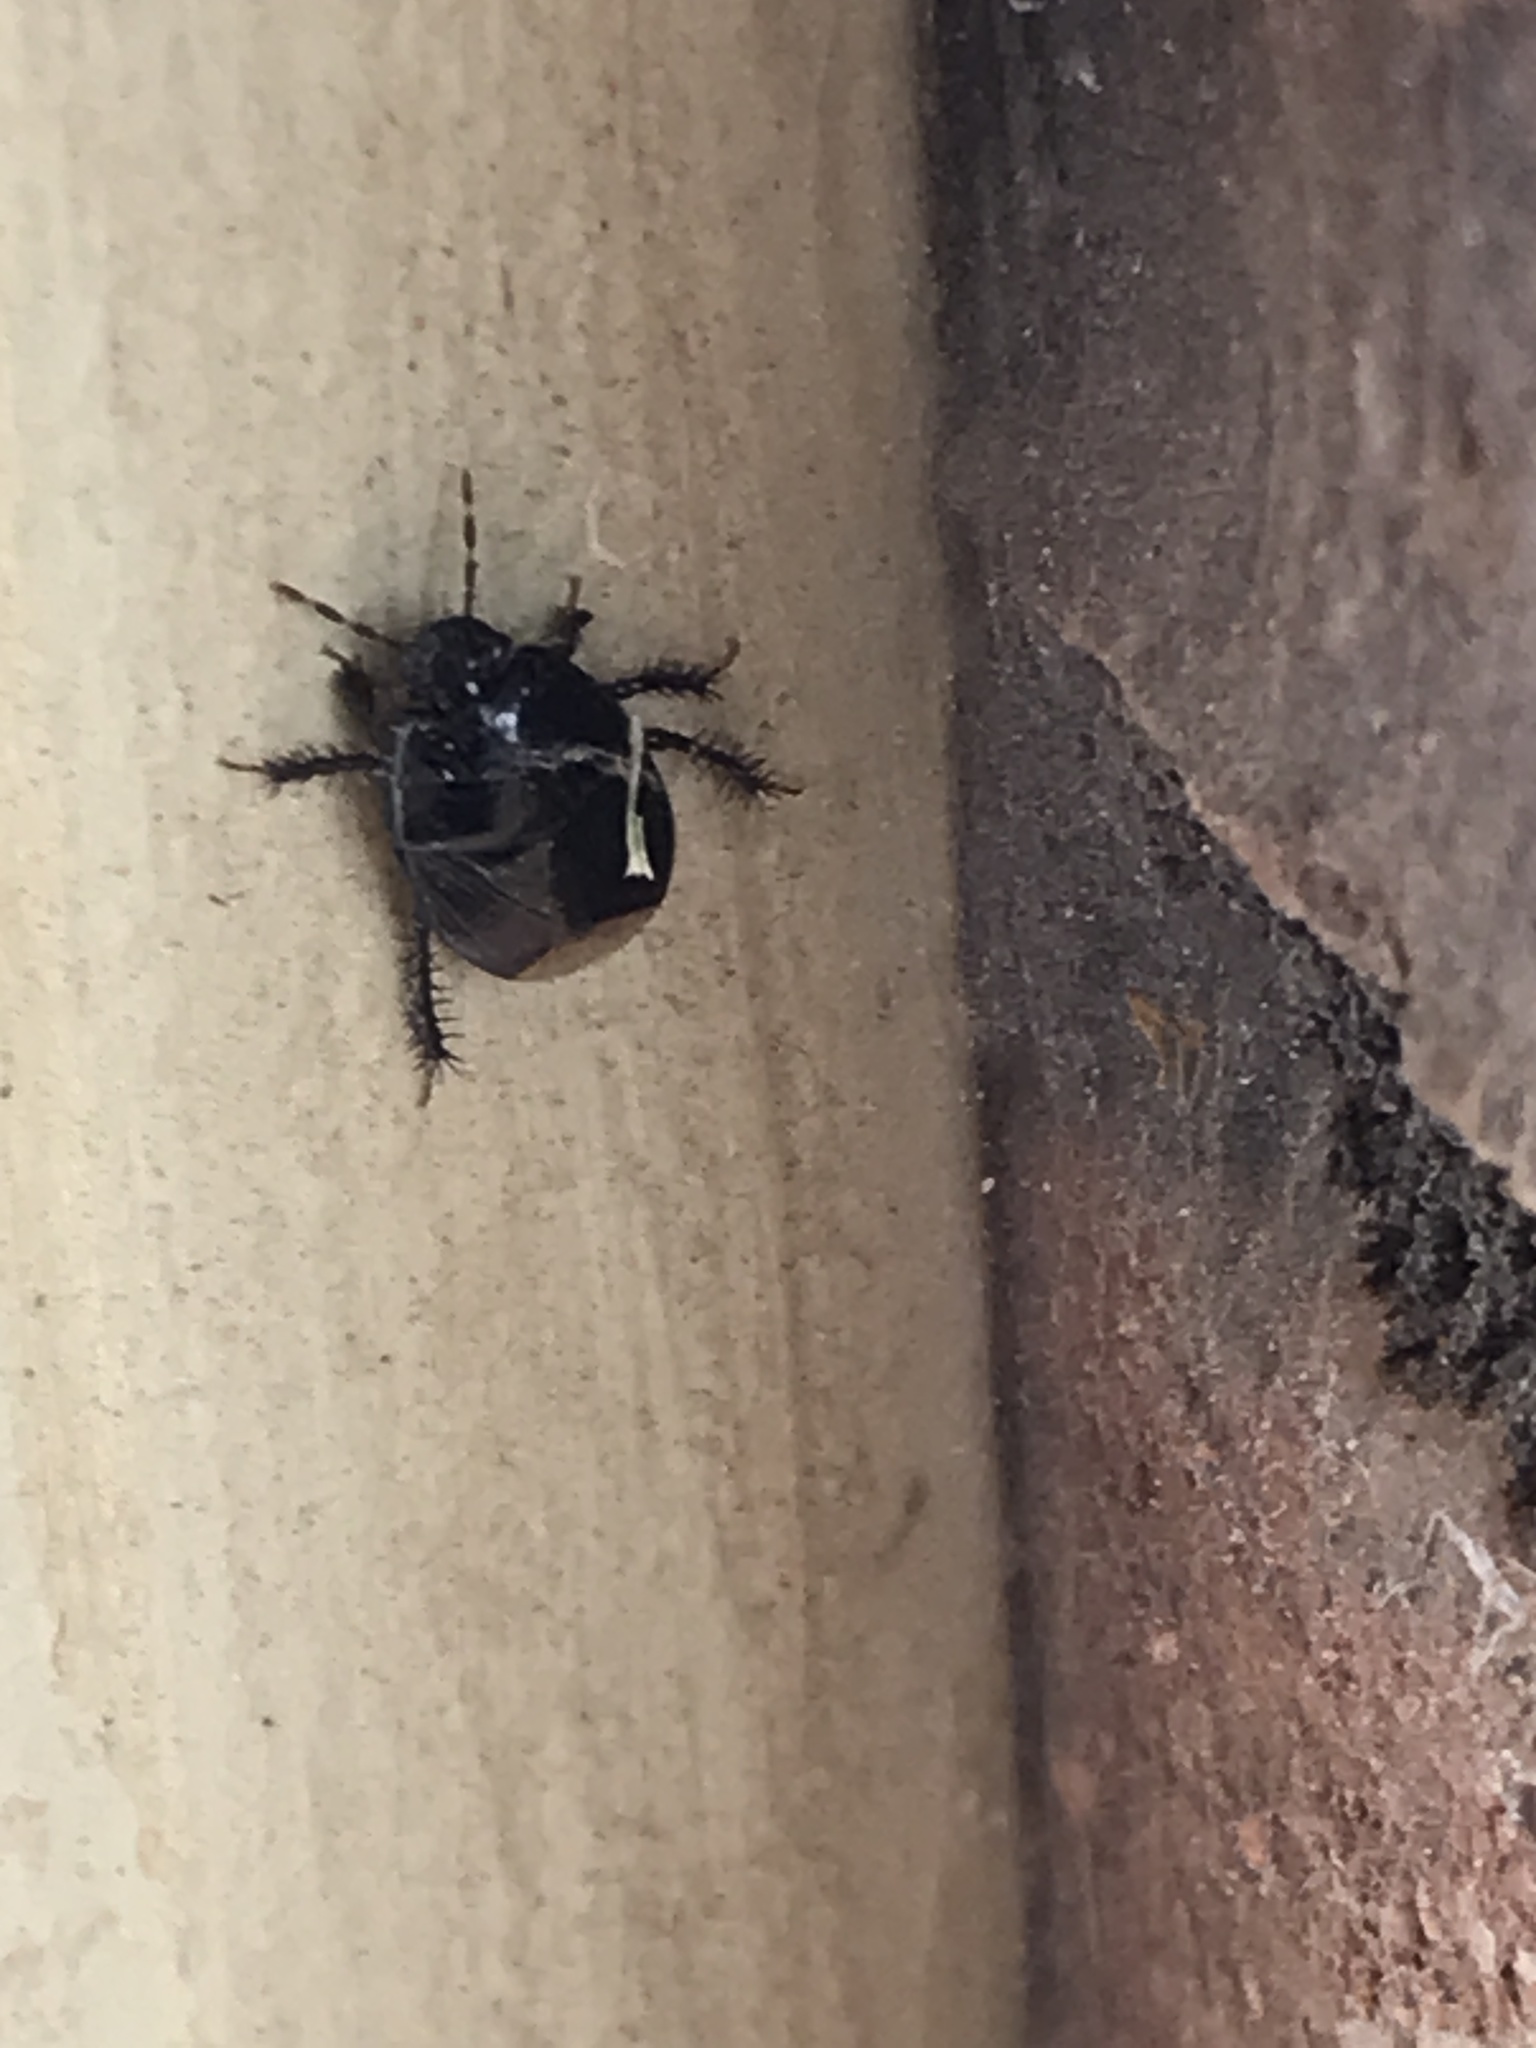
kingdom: Animalia
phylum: Arthropoda
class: Insecta
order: Hemiptera
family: Cydnidae
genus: Pangaeus
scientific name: Pangaeus bilineatus
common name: Burrower bug
